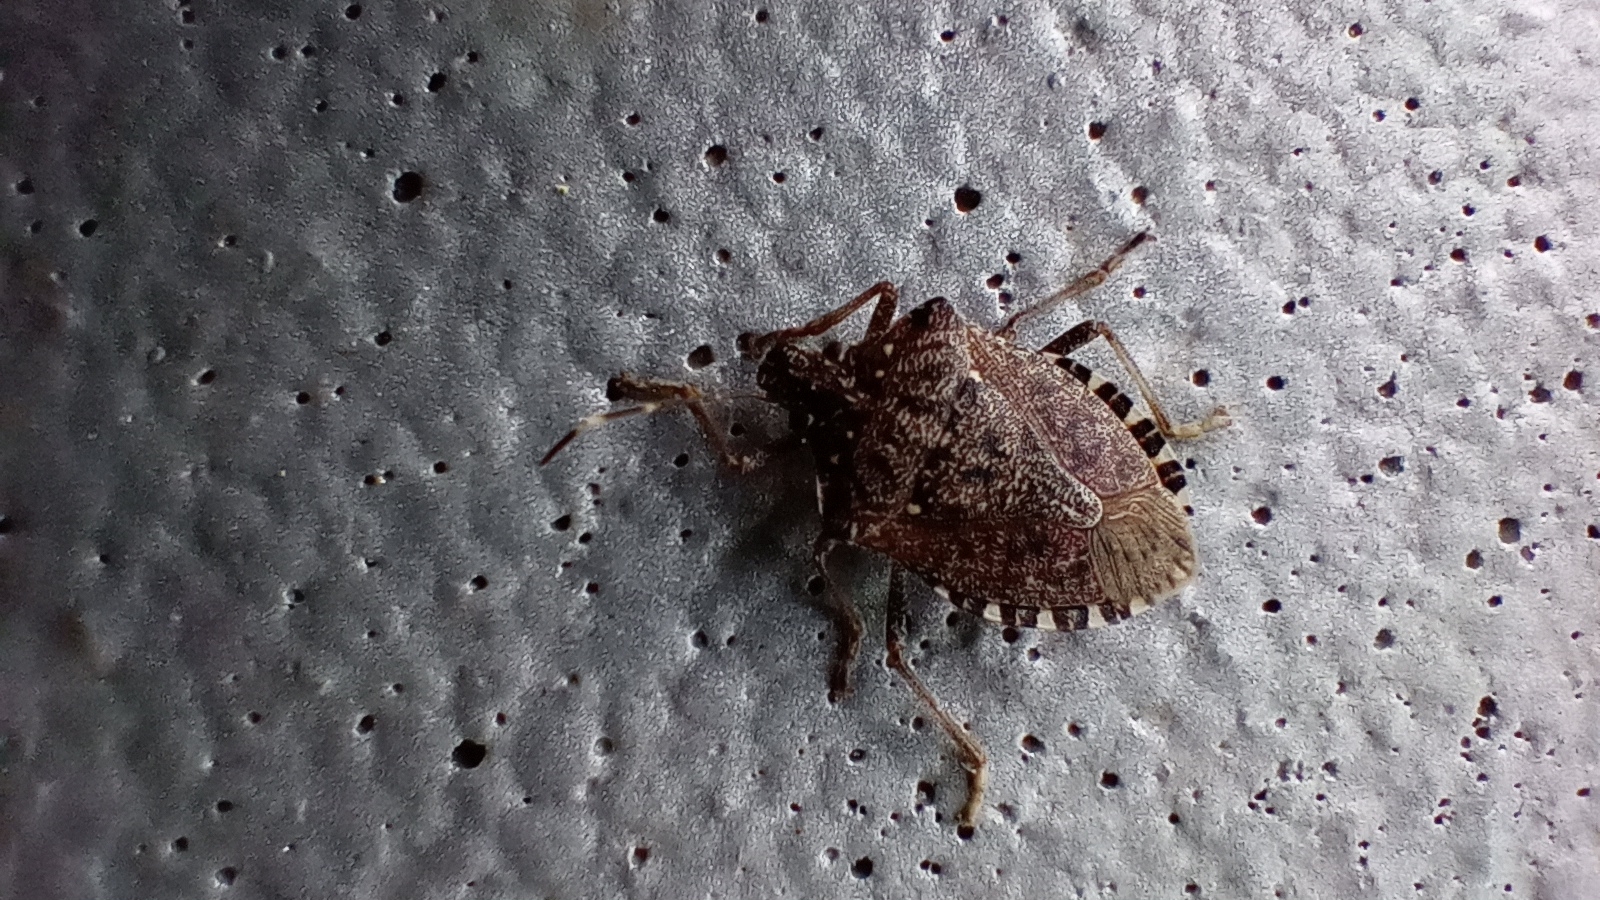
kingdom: Animalia
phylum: Arthropoda
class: Insecta
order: Hemiptera
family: Pentatomidae
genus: Halyomorpha
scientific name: Halyomorpha halys
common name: Brown marmorated stink bug
